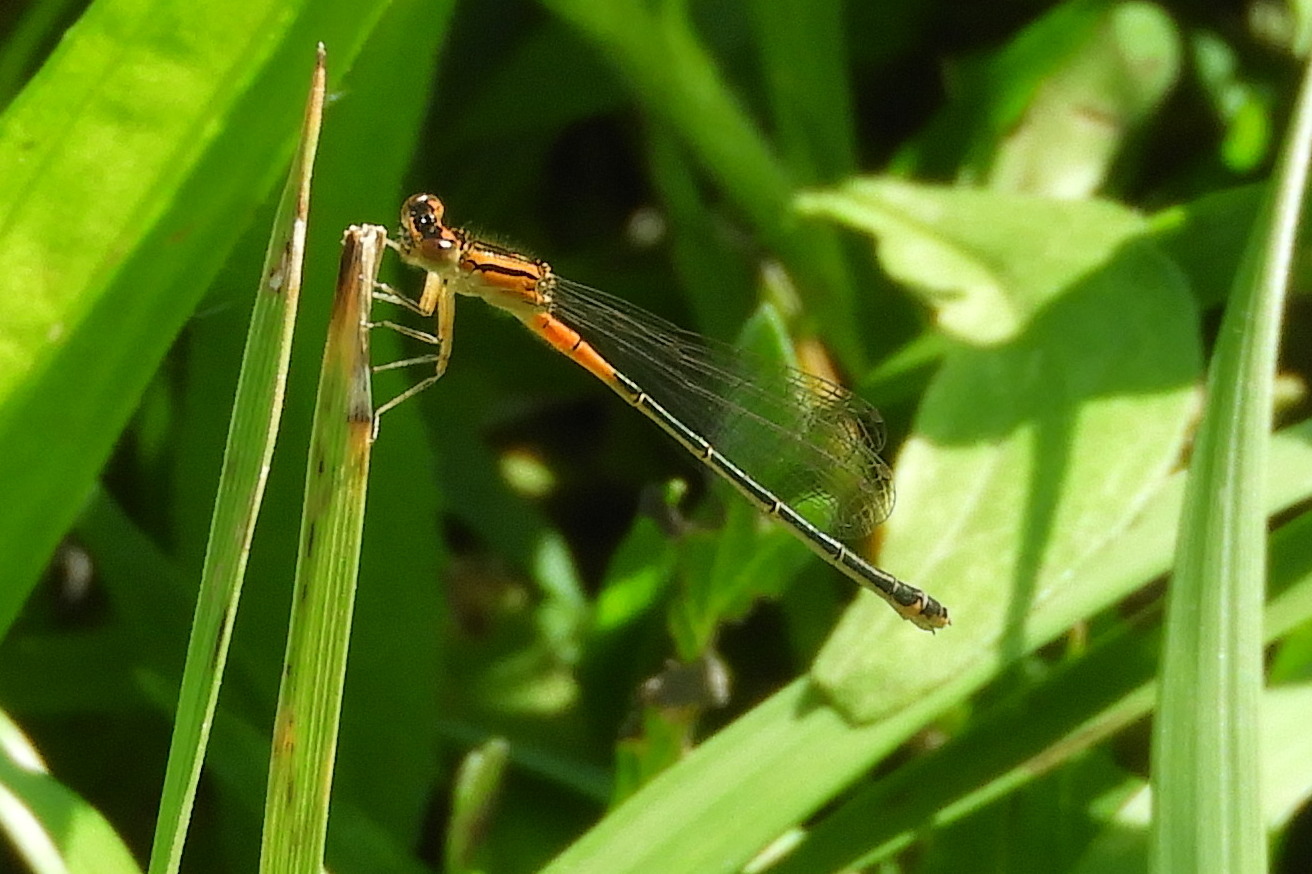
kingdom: Animalia
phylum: Arthropoda
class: Insecta
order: Odonata
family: Coenagrionidae
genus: Ischnura
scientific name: Ischnura verticalis
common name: Eastern forktail
